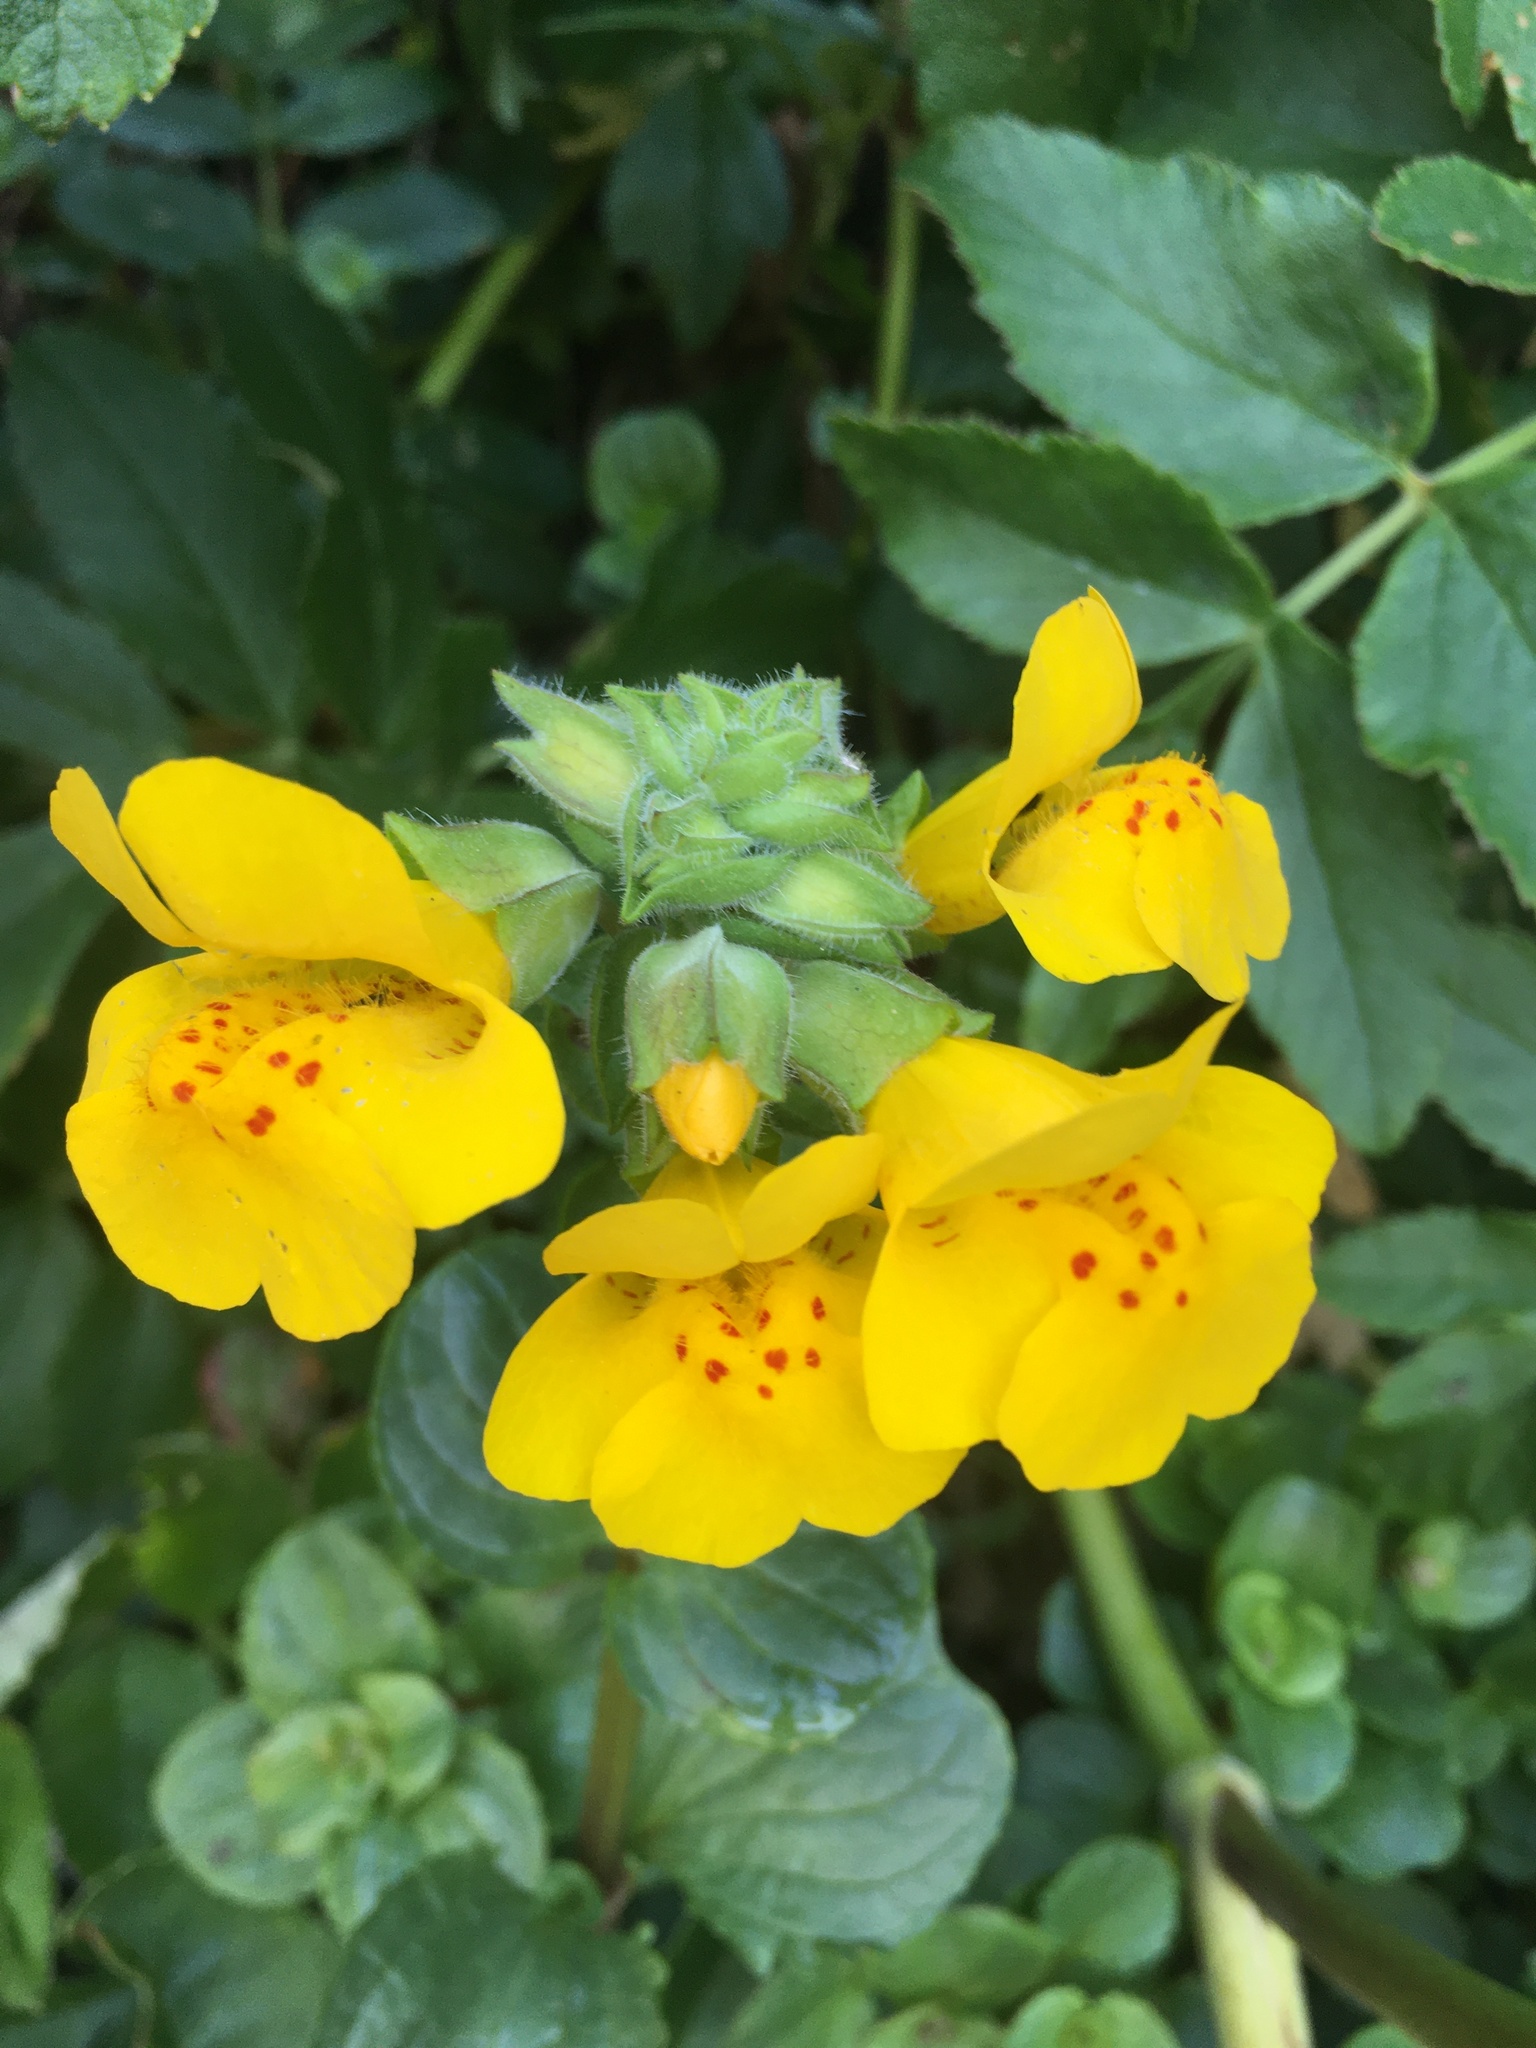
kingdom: Plantae
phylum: Tracheophyta
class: Magnoliopsida
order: Lamiales
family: Phrymaceae
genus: Erythranthe
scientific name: Erythranthe grandis
